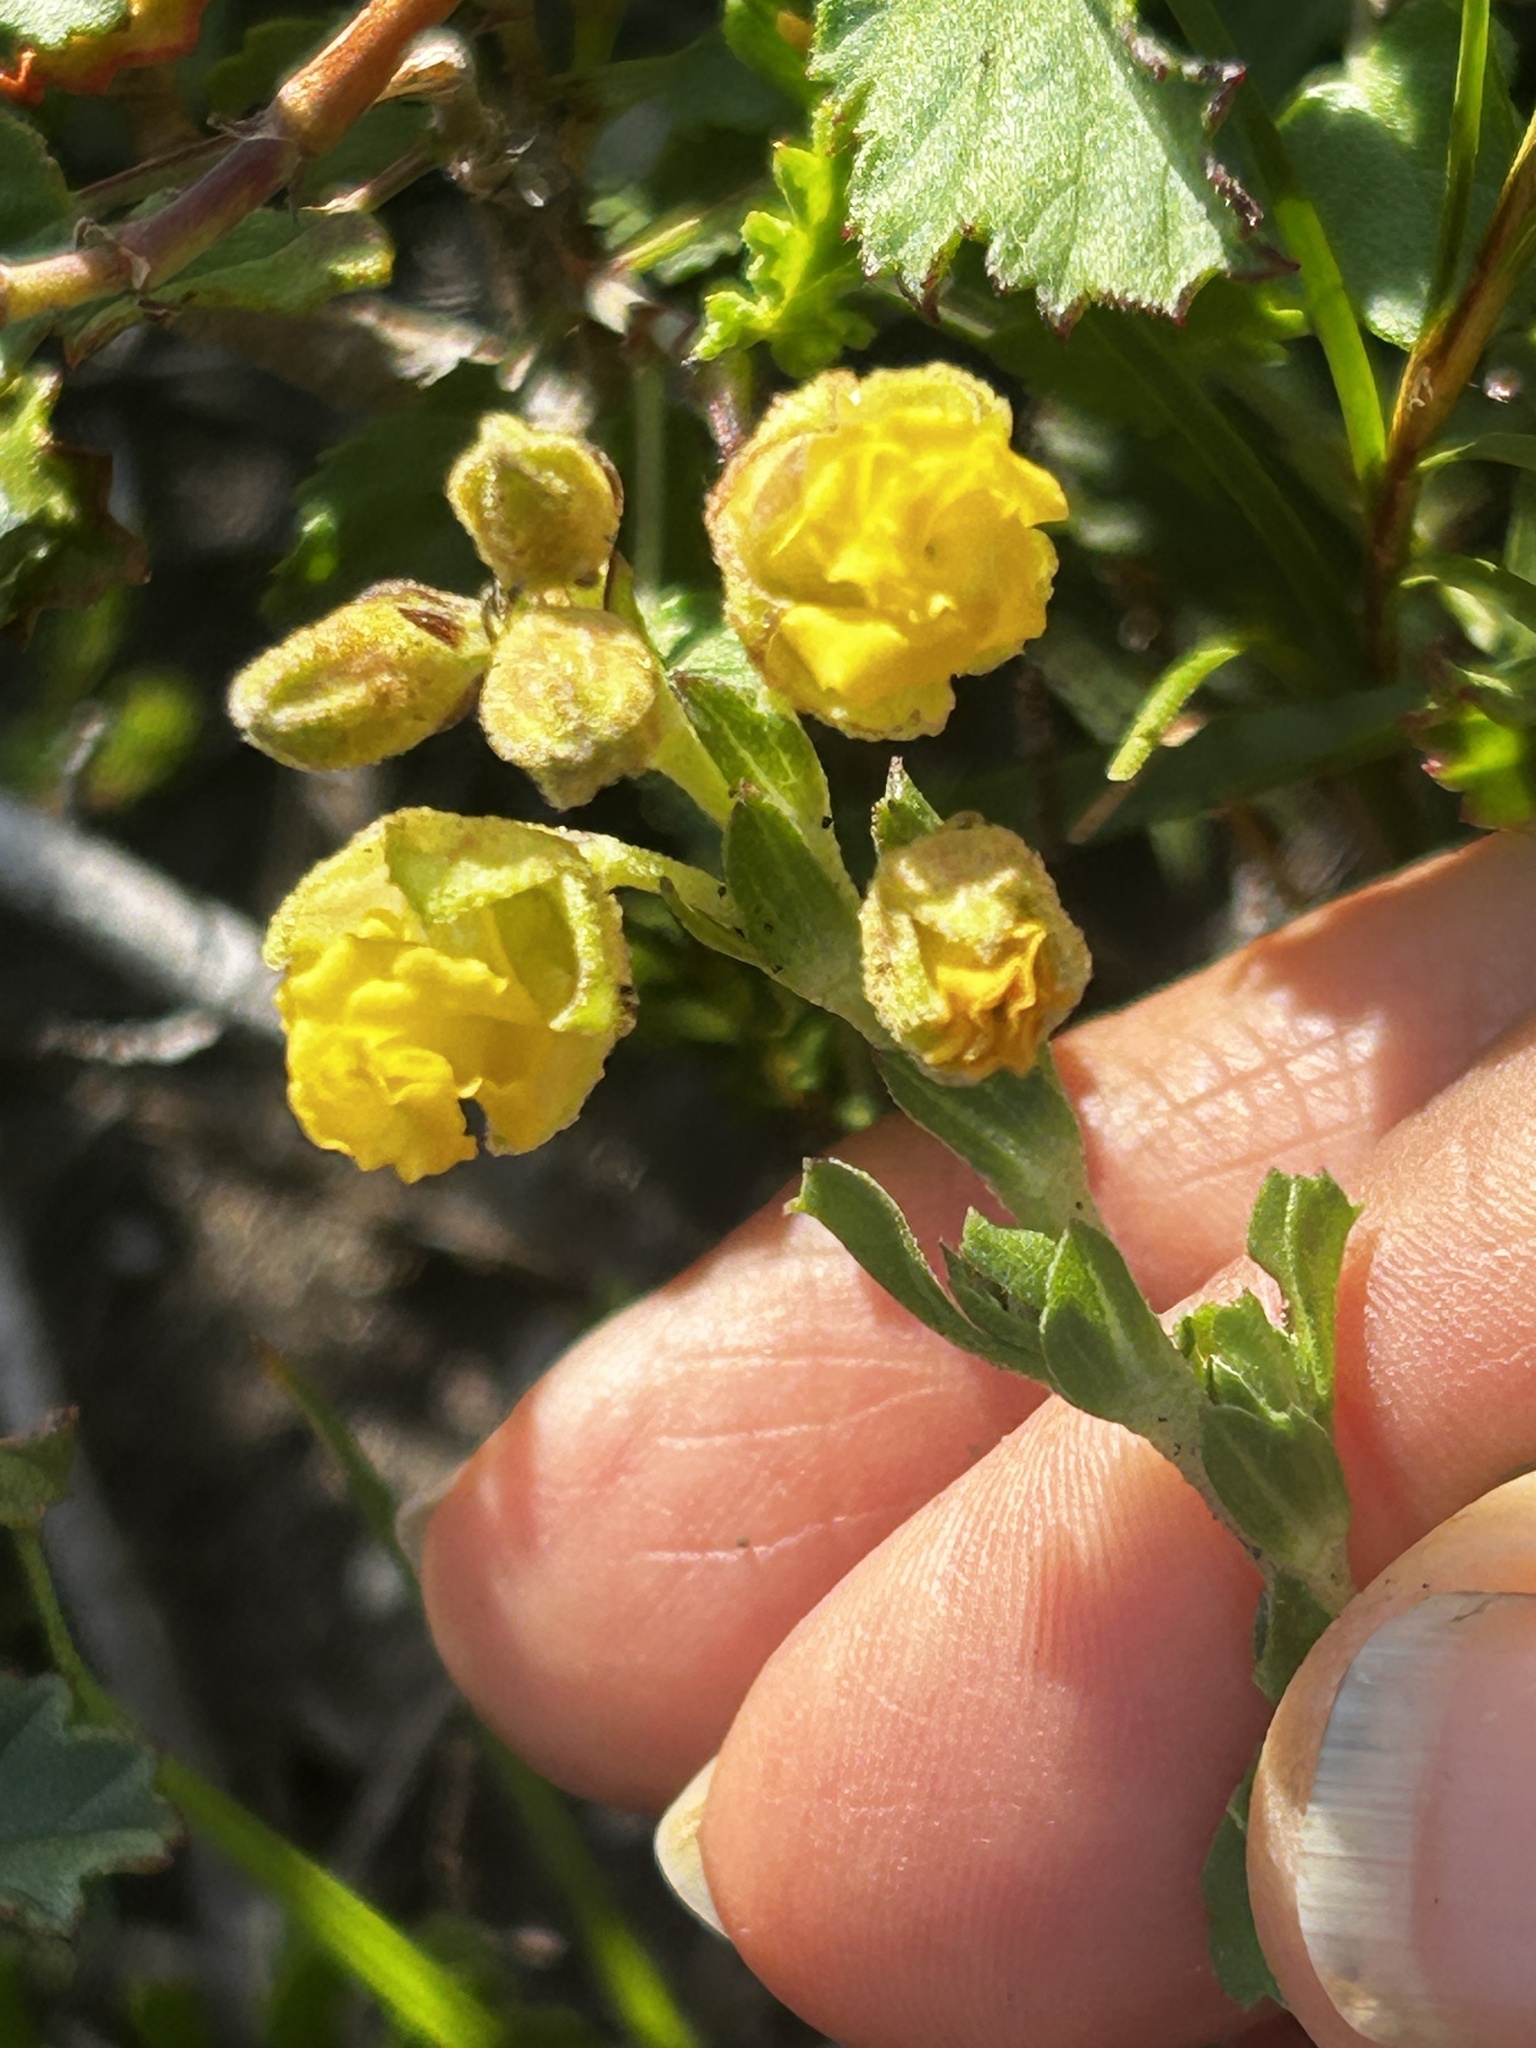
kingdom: Plantae
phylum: Tracheophyta
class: Magnoliopsida
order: Malvales
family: Malvaceae
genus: Hermannia
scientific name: Hermannia concinnifolia
